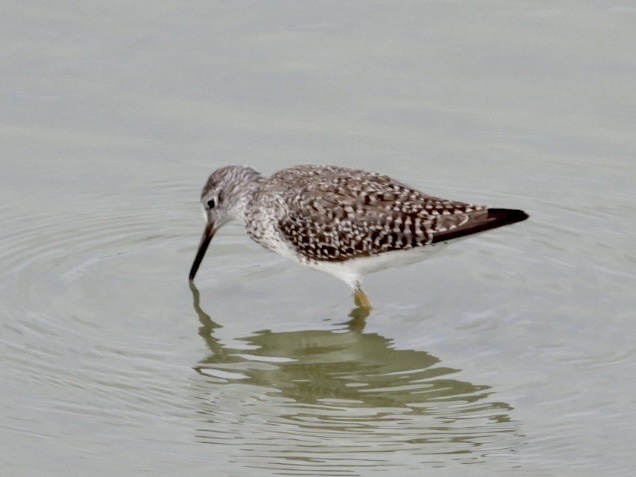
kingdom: Animalia
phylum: Chordata
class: Aves
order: Charadriiformes
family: Scolopacidae
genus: Tringa
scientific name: Tringa flavipes
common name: Lesser yellowlegs
